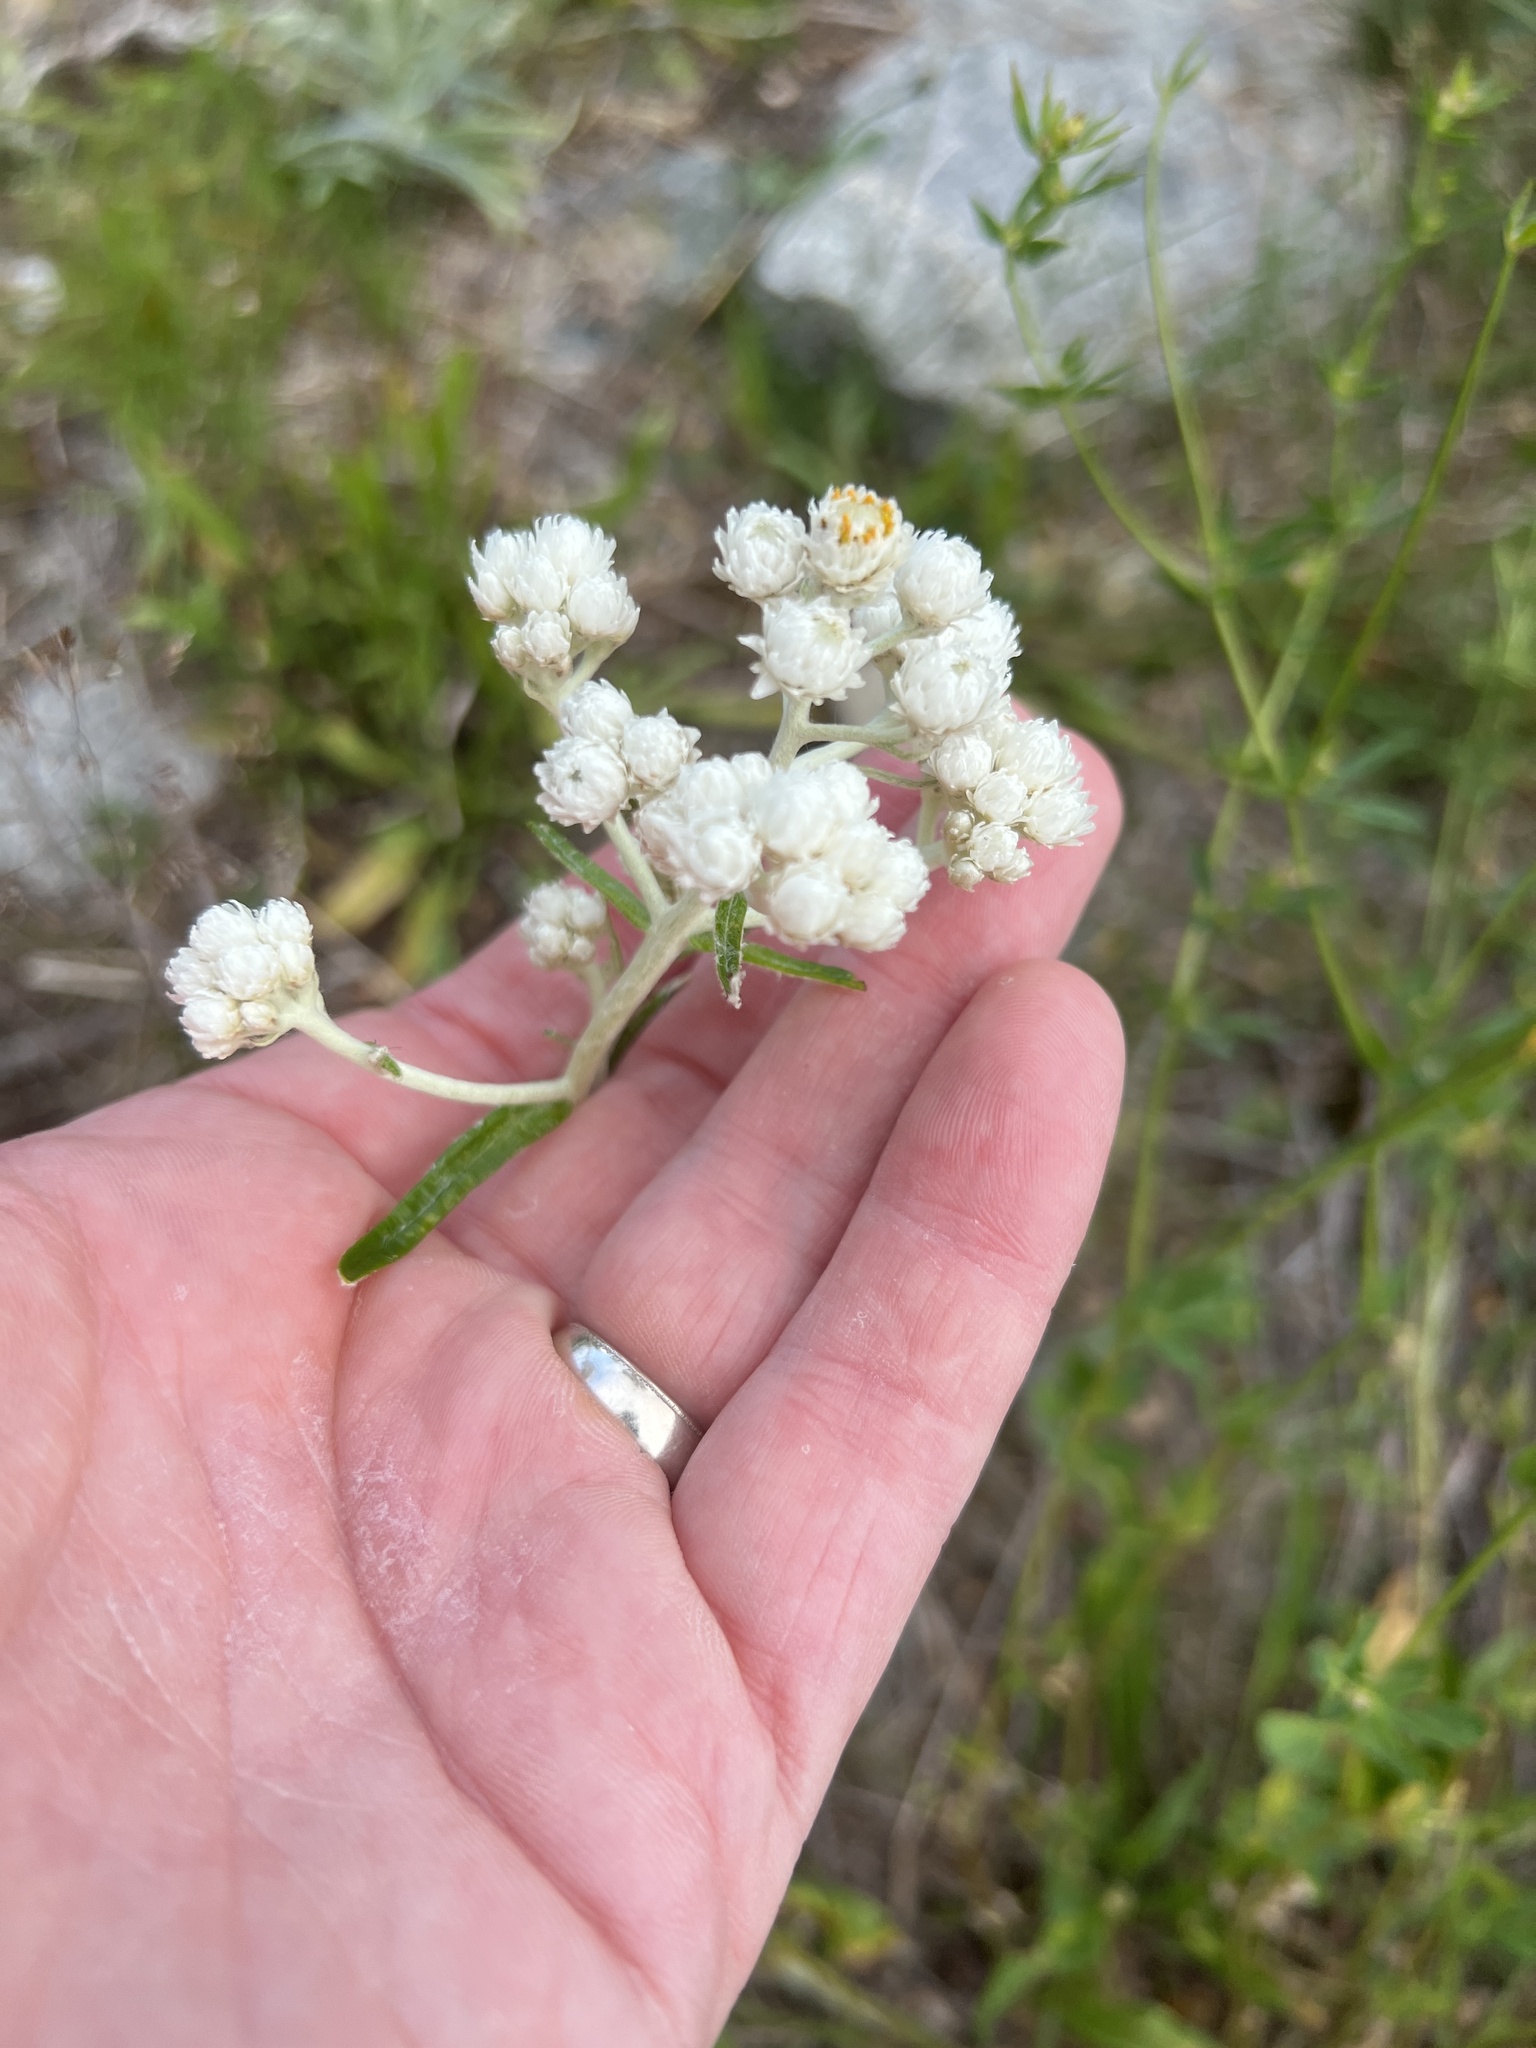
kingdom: Plantae
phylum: Tracheophyta
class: Magnoliopsida
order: Asterales
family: Asteraceae
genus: Anaphalis
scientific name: Anaphalis margaritacea
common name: Pearly everlasting
